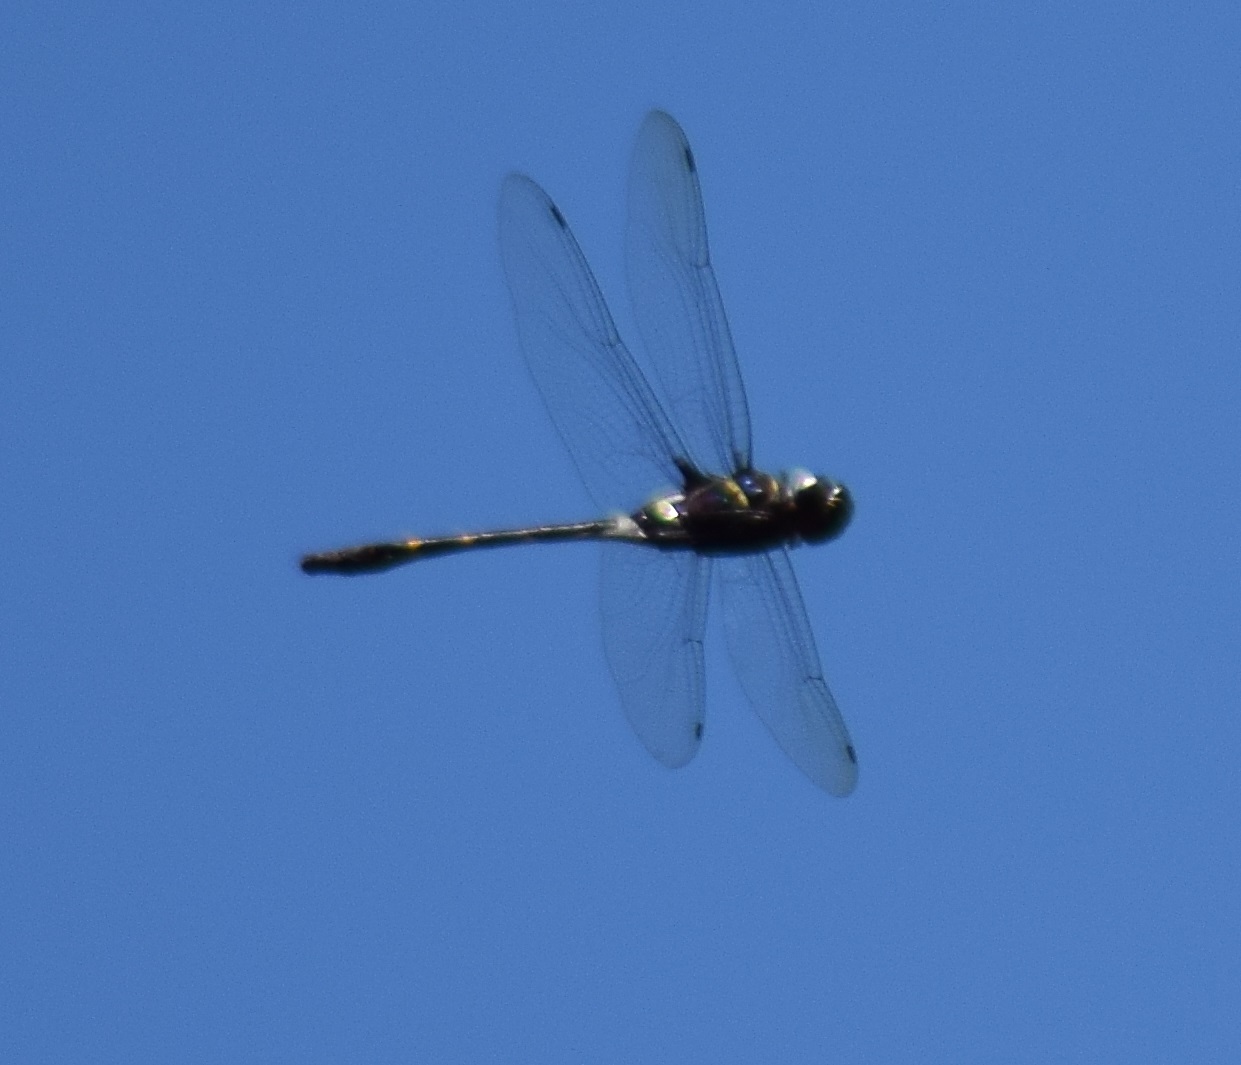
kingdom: Animalia
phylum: Arthropoda
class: Insecta
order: Odonata
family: Macromiidae
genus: Epophthalmia
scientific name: Epophthalmia vittata
